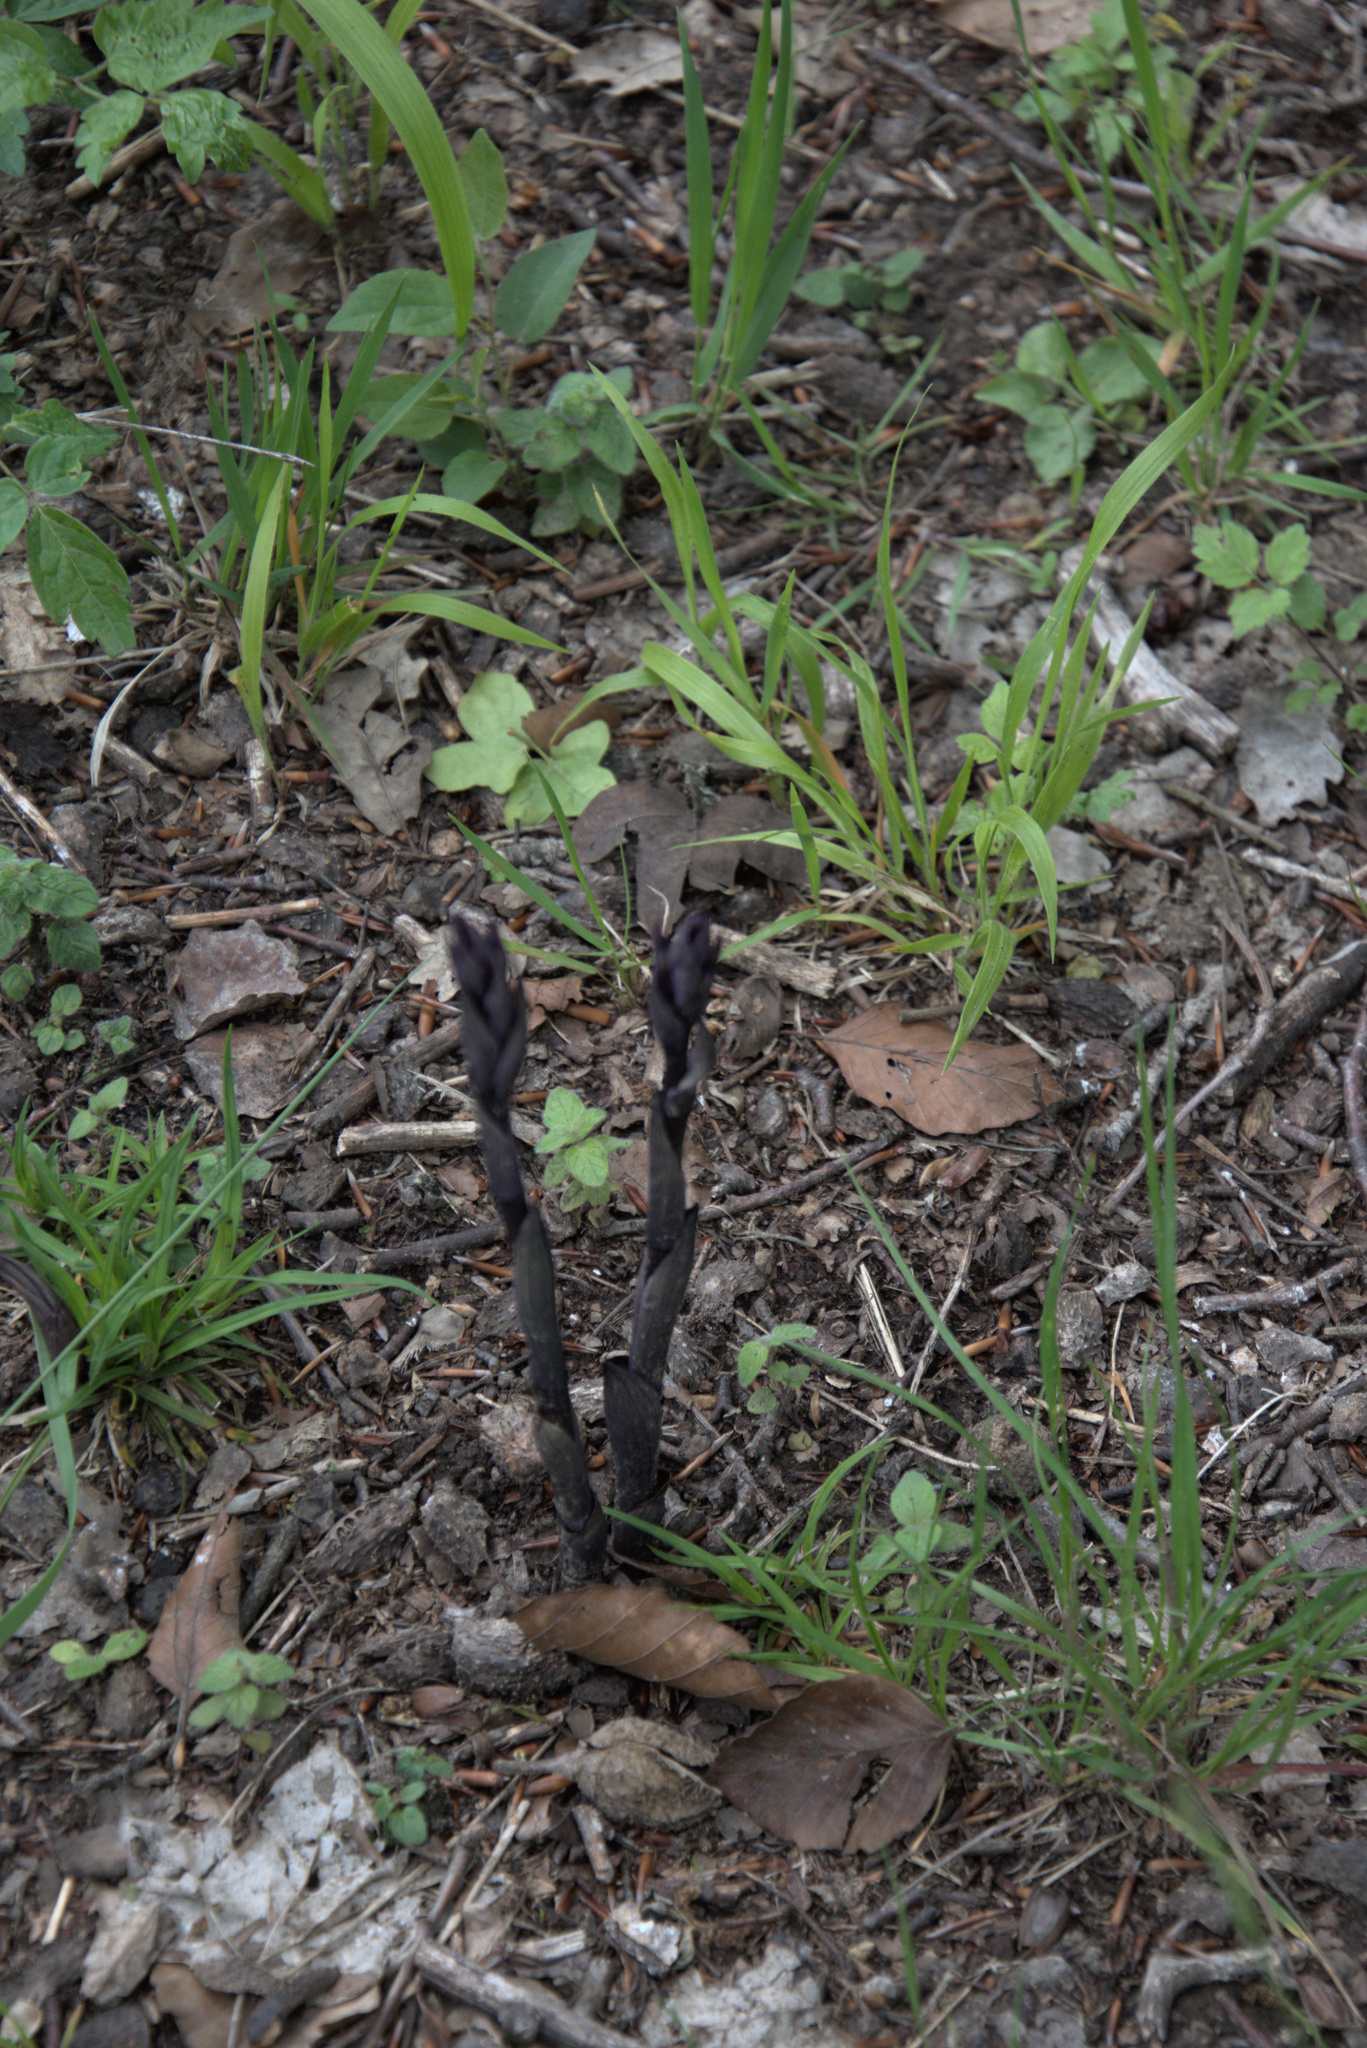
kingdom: Plantae
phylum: Tracheophyta
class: Liliopsida
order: Asparagales
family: Orchidaceae
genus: Limodorum
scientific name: Limodorum abortivum
